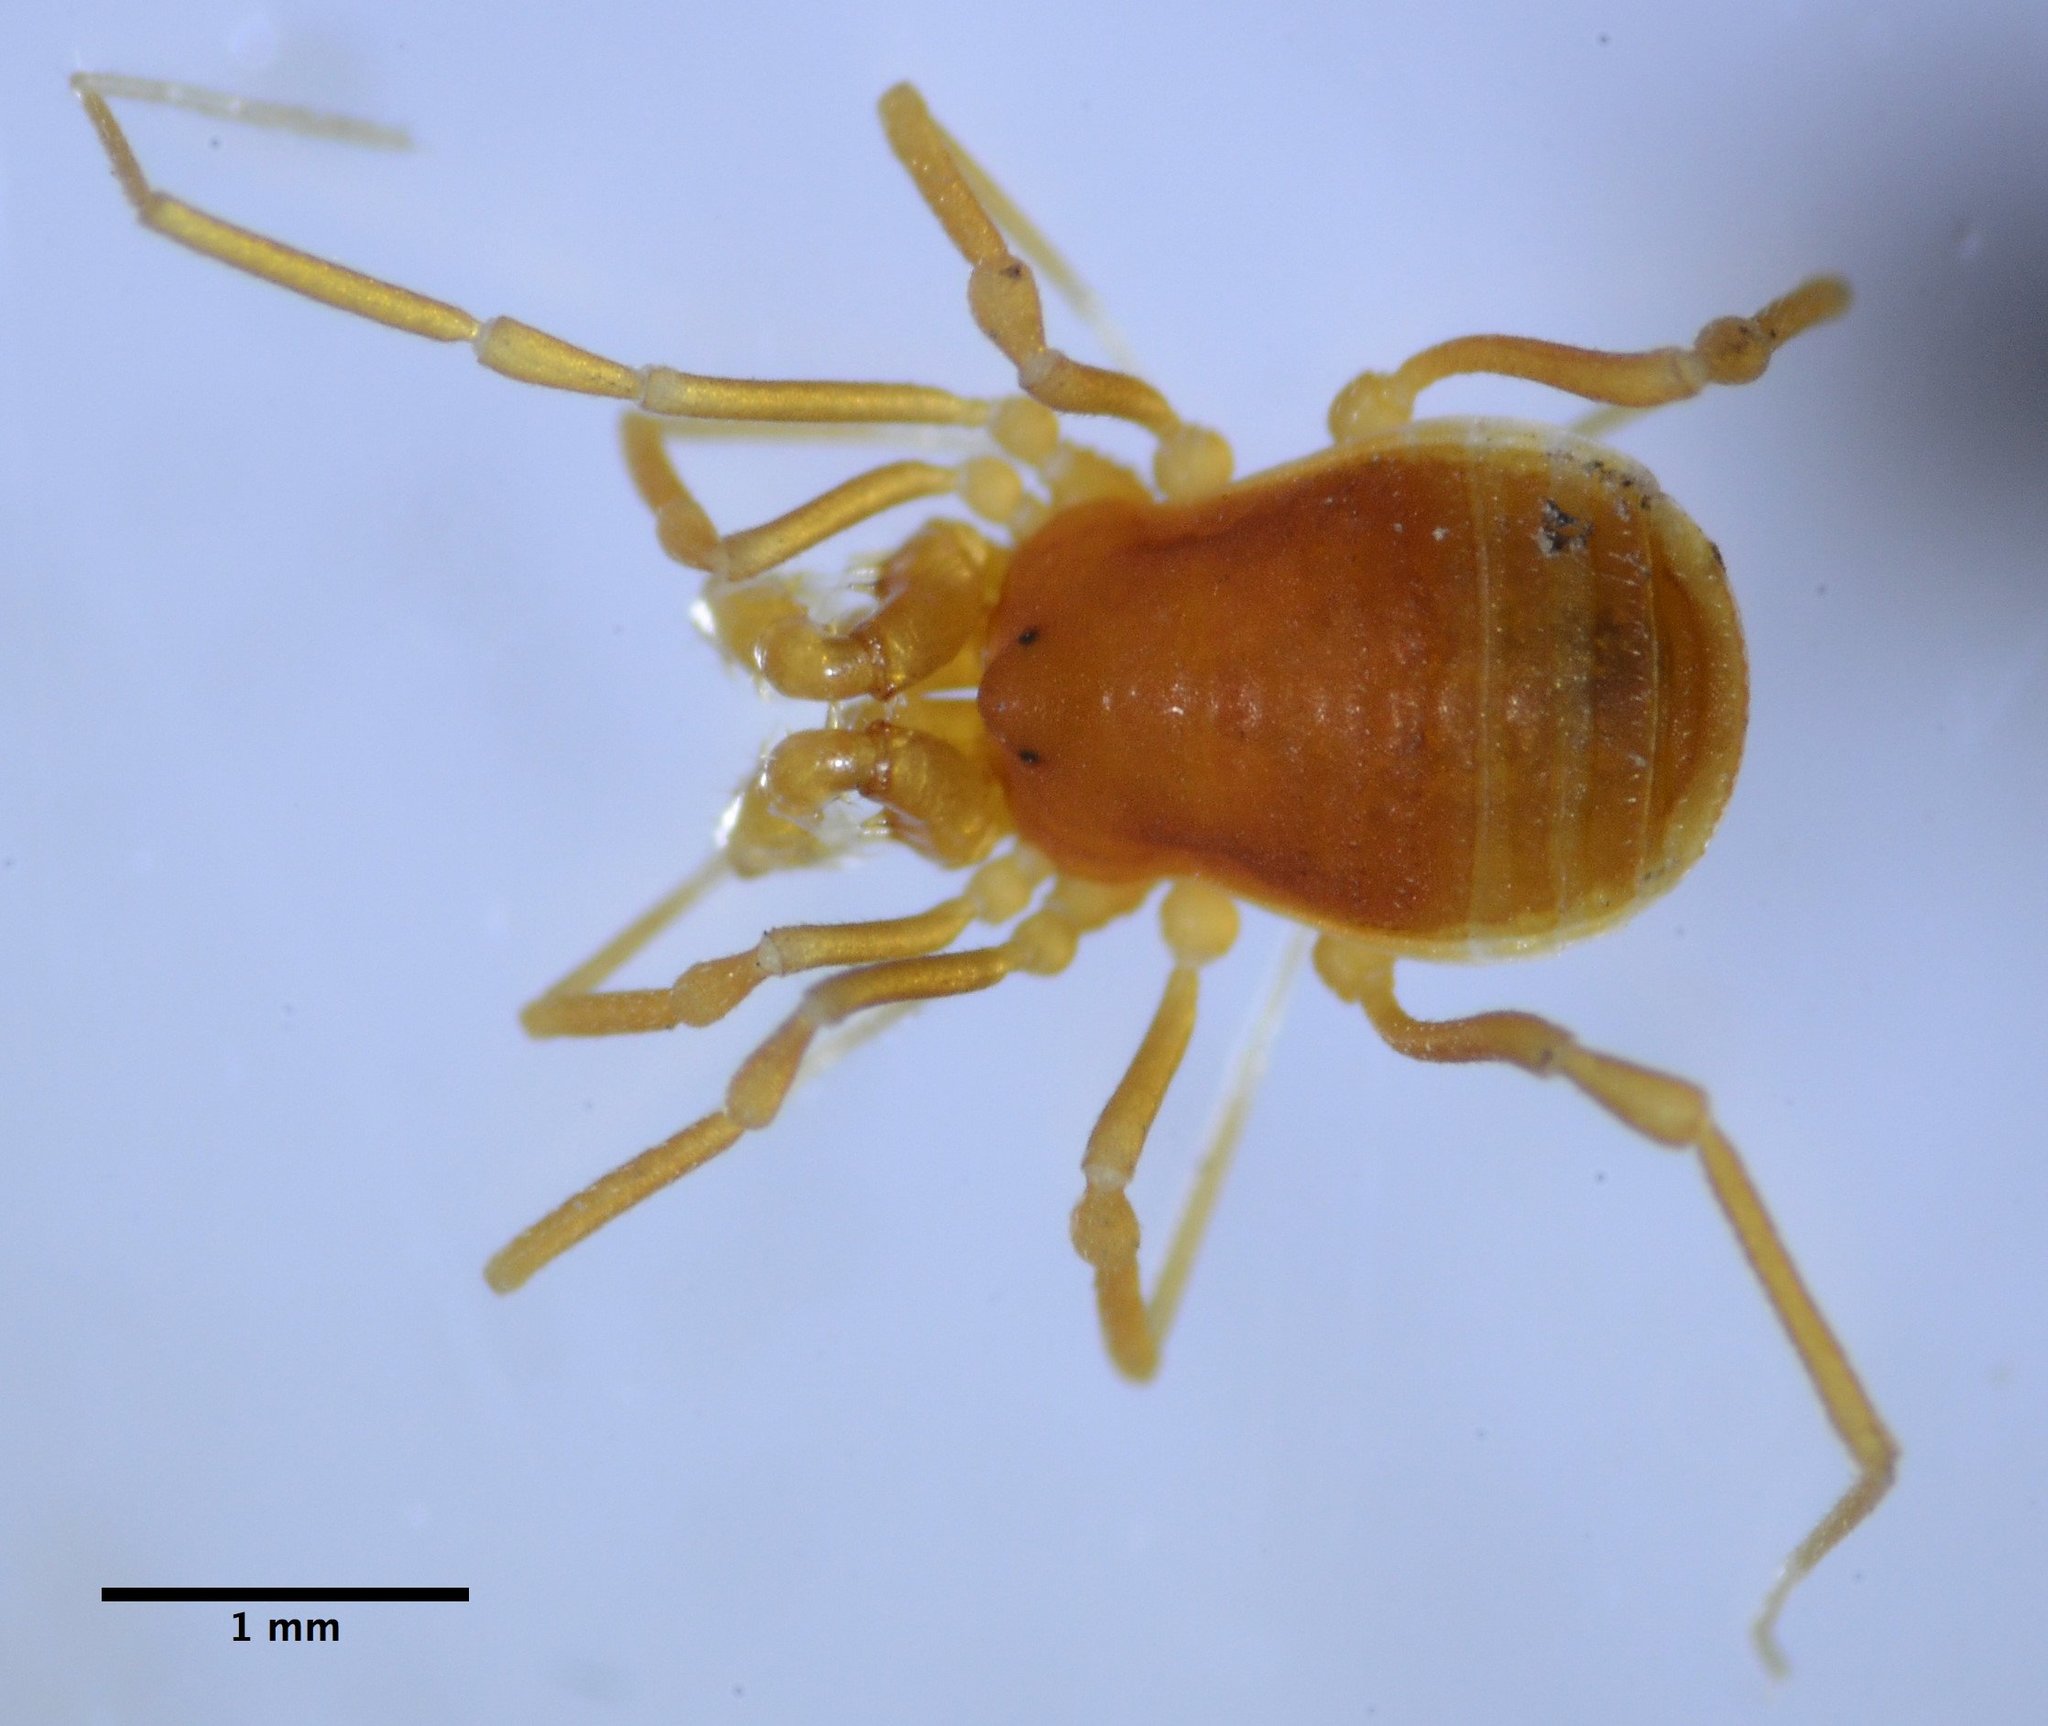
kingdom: Animalia
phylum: Arthropoda
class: Arachnida
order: Opiliones
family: Phalangodidae
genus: Calicina
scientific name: Calicina sequoia
